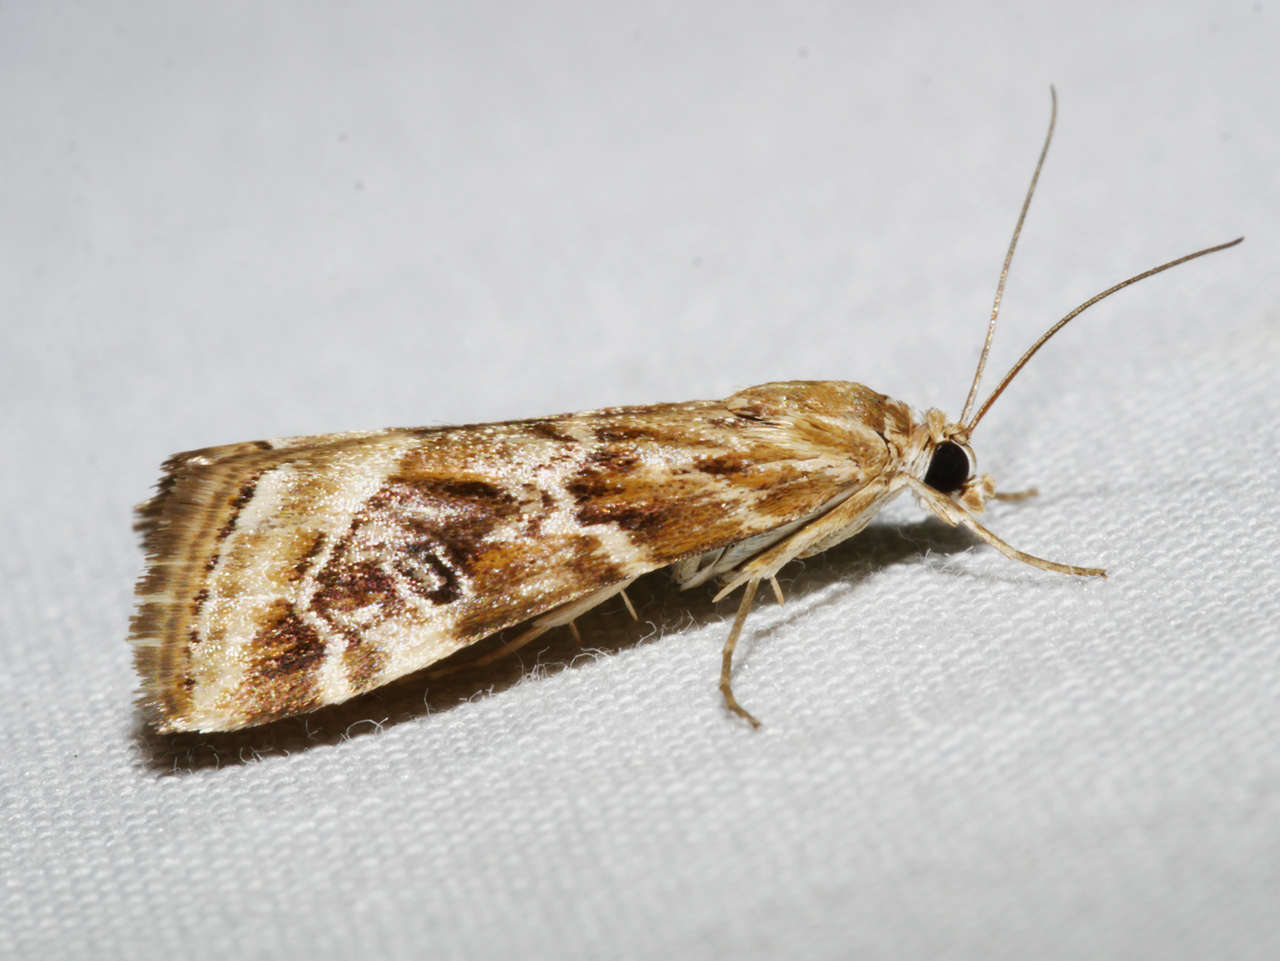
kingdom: Animalia
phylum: Arthropoda
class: Insecta
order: Lepidoptera
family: Crambidae
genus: Hellula
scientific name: Hellula hydralis
